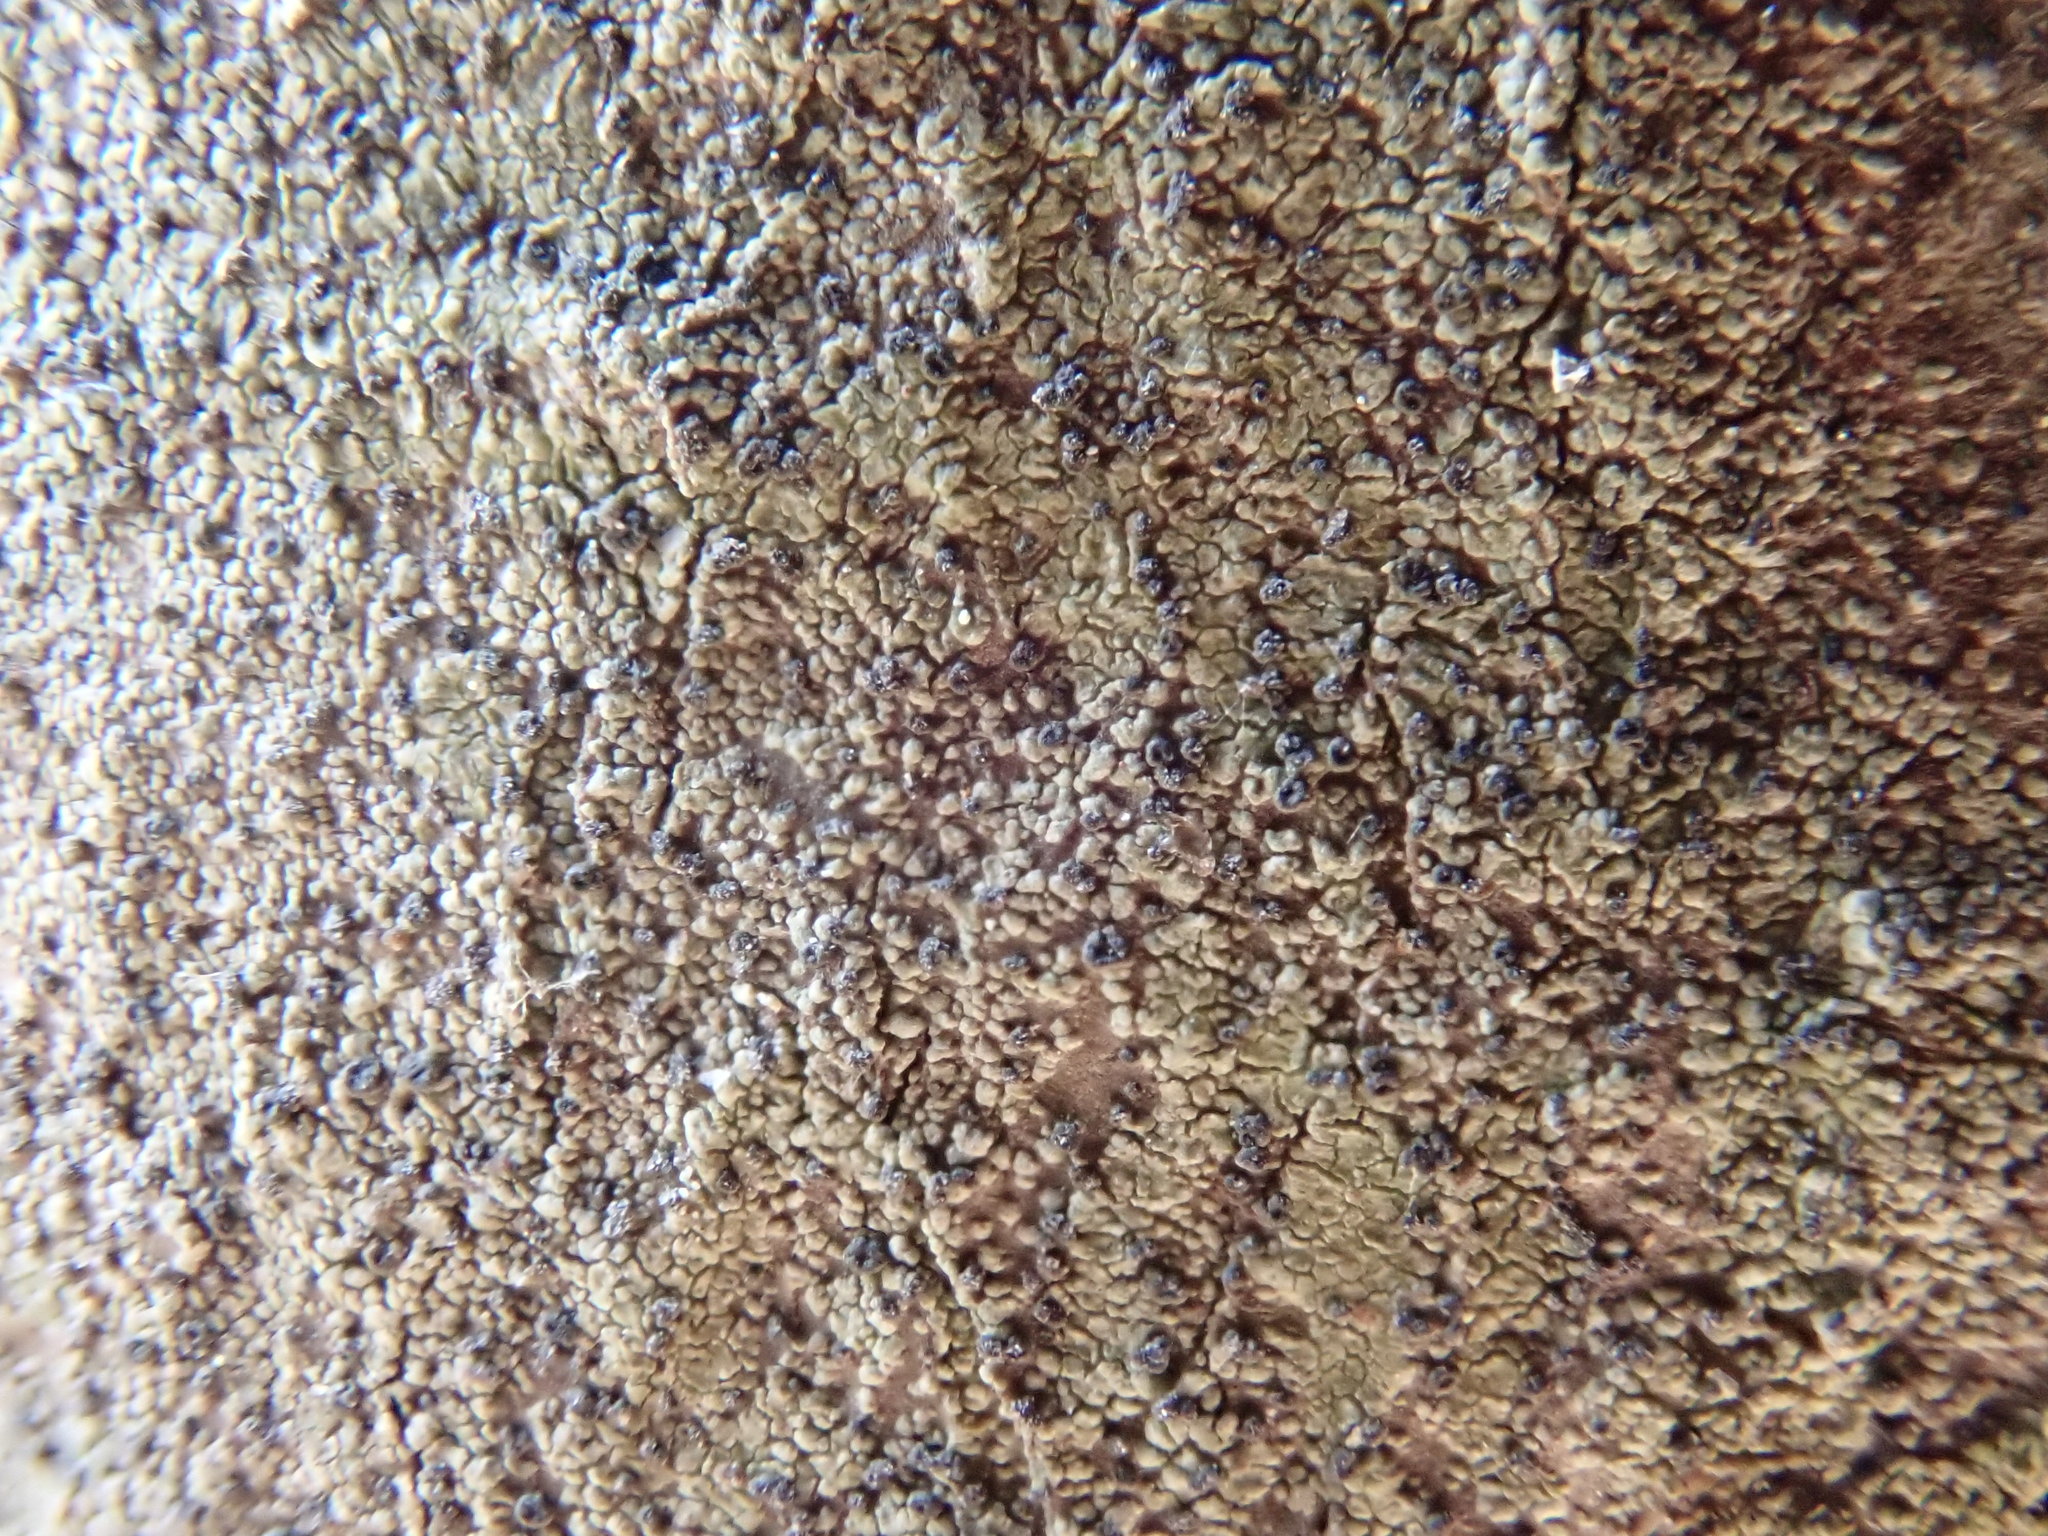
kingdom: Fungi
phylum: Ascomycota
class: Lecanoromycetes
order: Schaereriales
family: Schaereriaceae
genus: Ropalospora
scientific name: Ropalospora chlorantha
